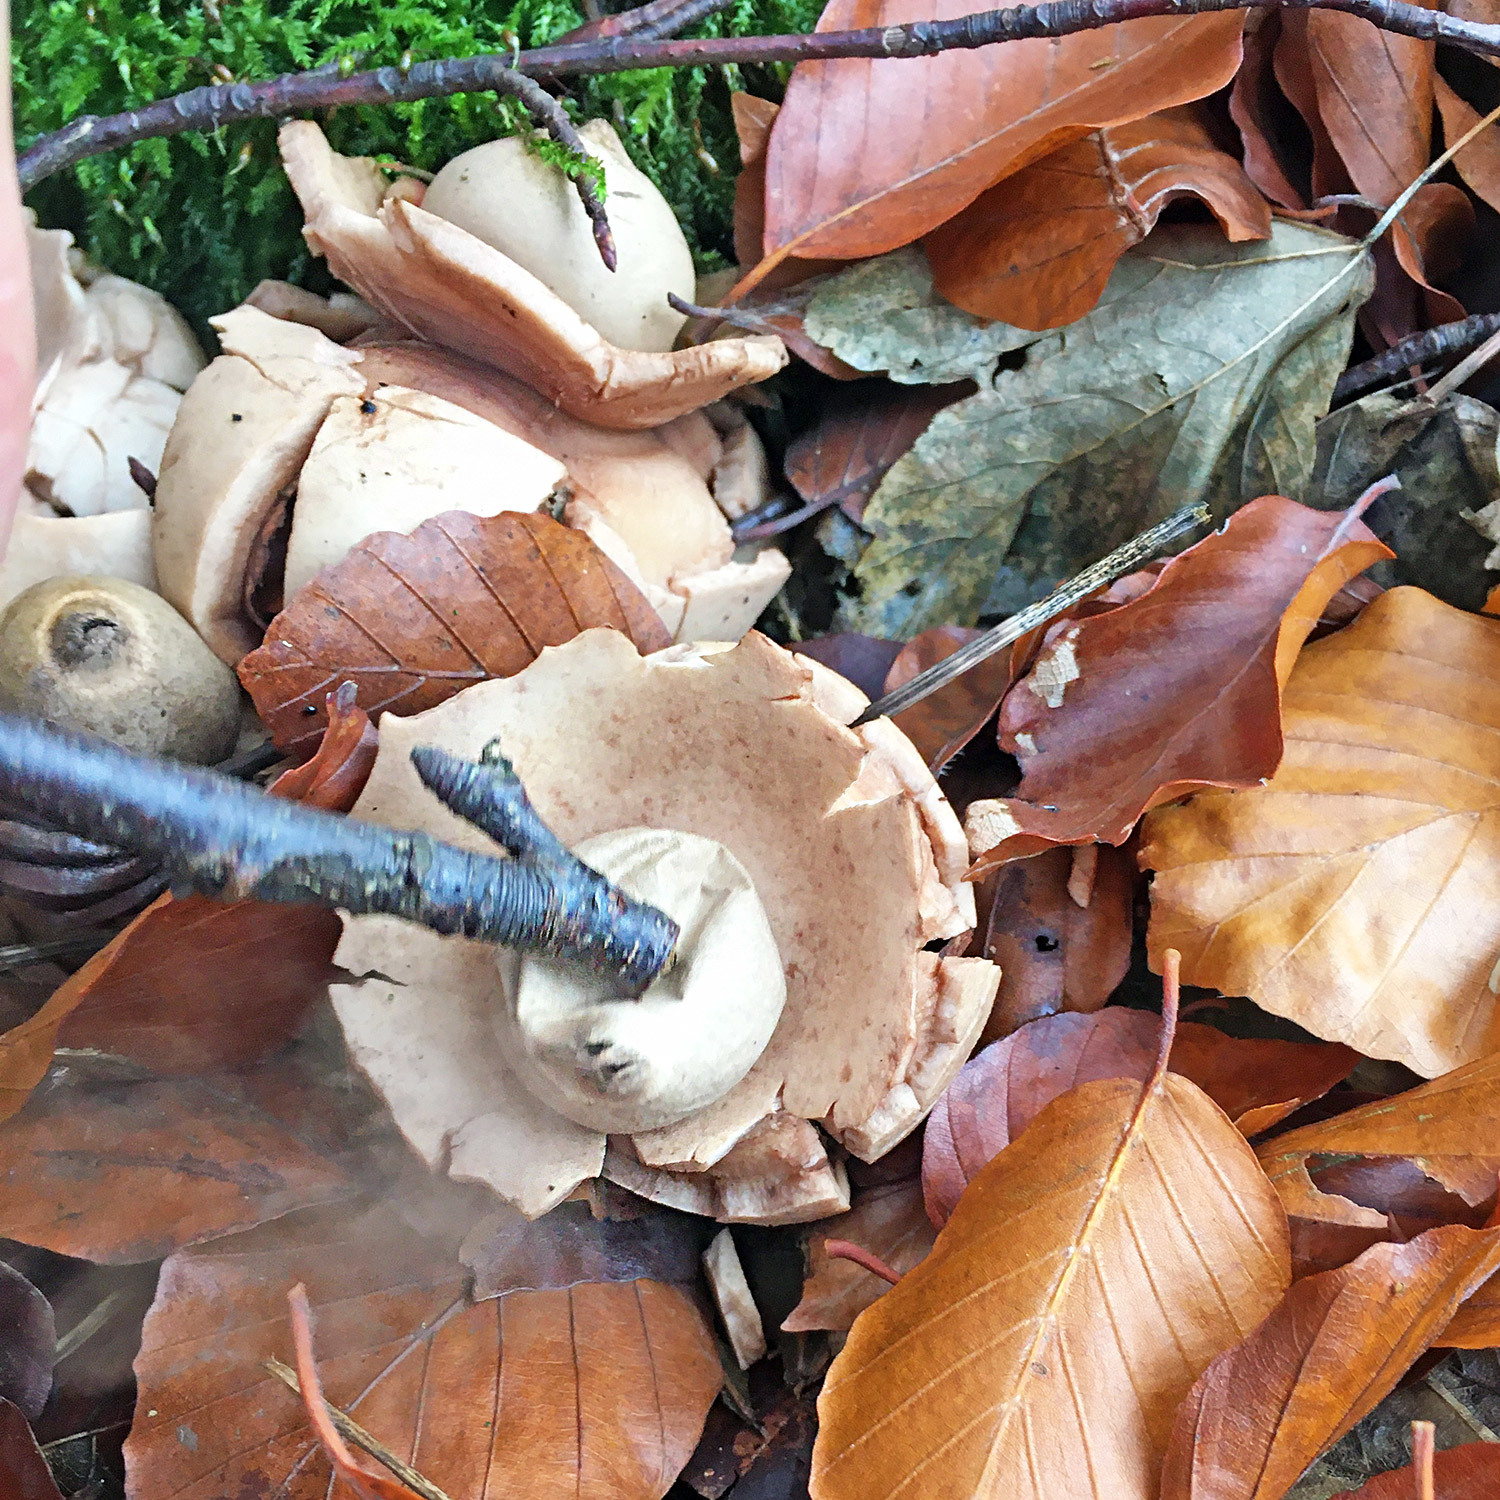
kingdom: Fungi
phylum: Basidiomycota
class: Agaricomycetes
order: Geastrales
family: Geastraceae
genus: Geastrum
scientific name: Geastrum triplex
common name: Collared earthstar
